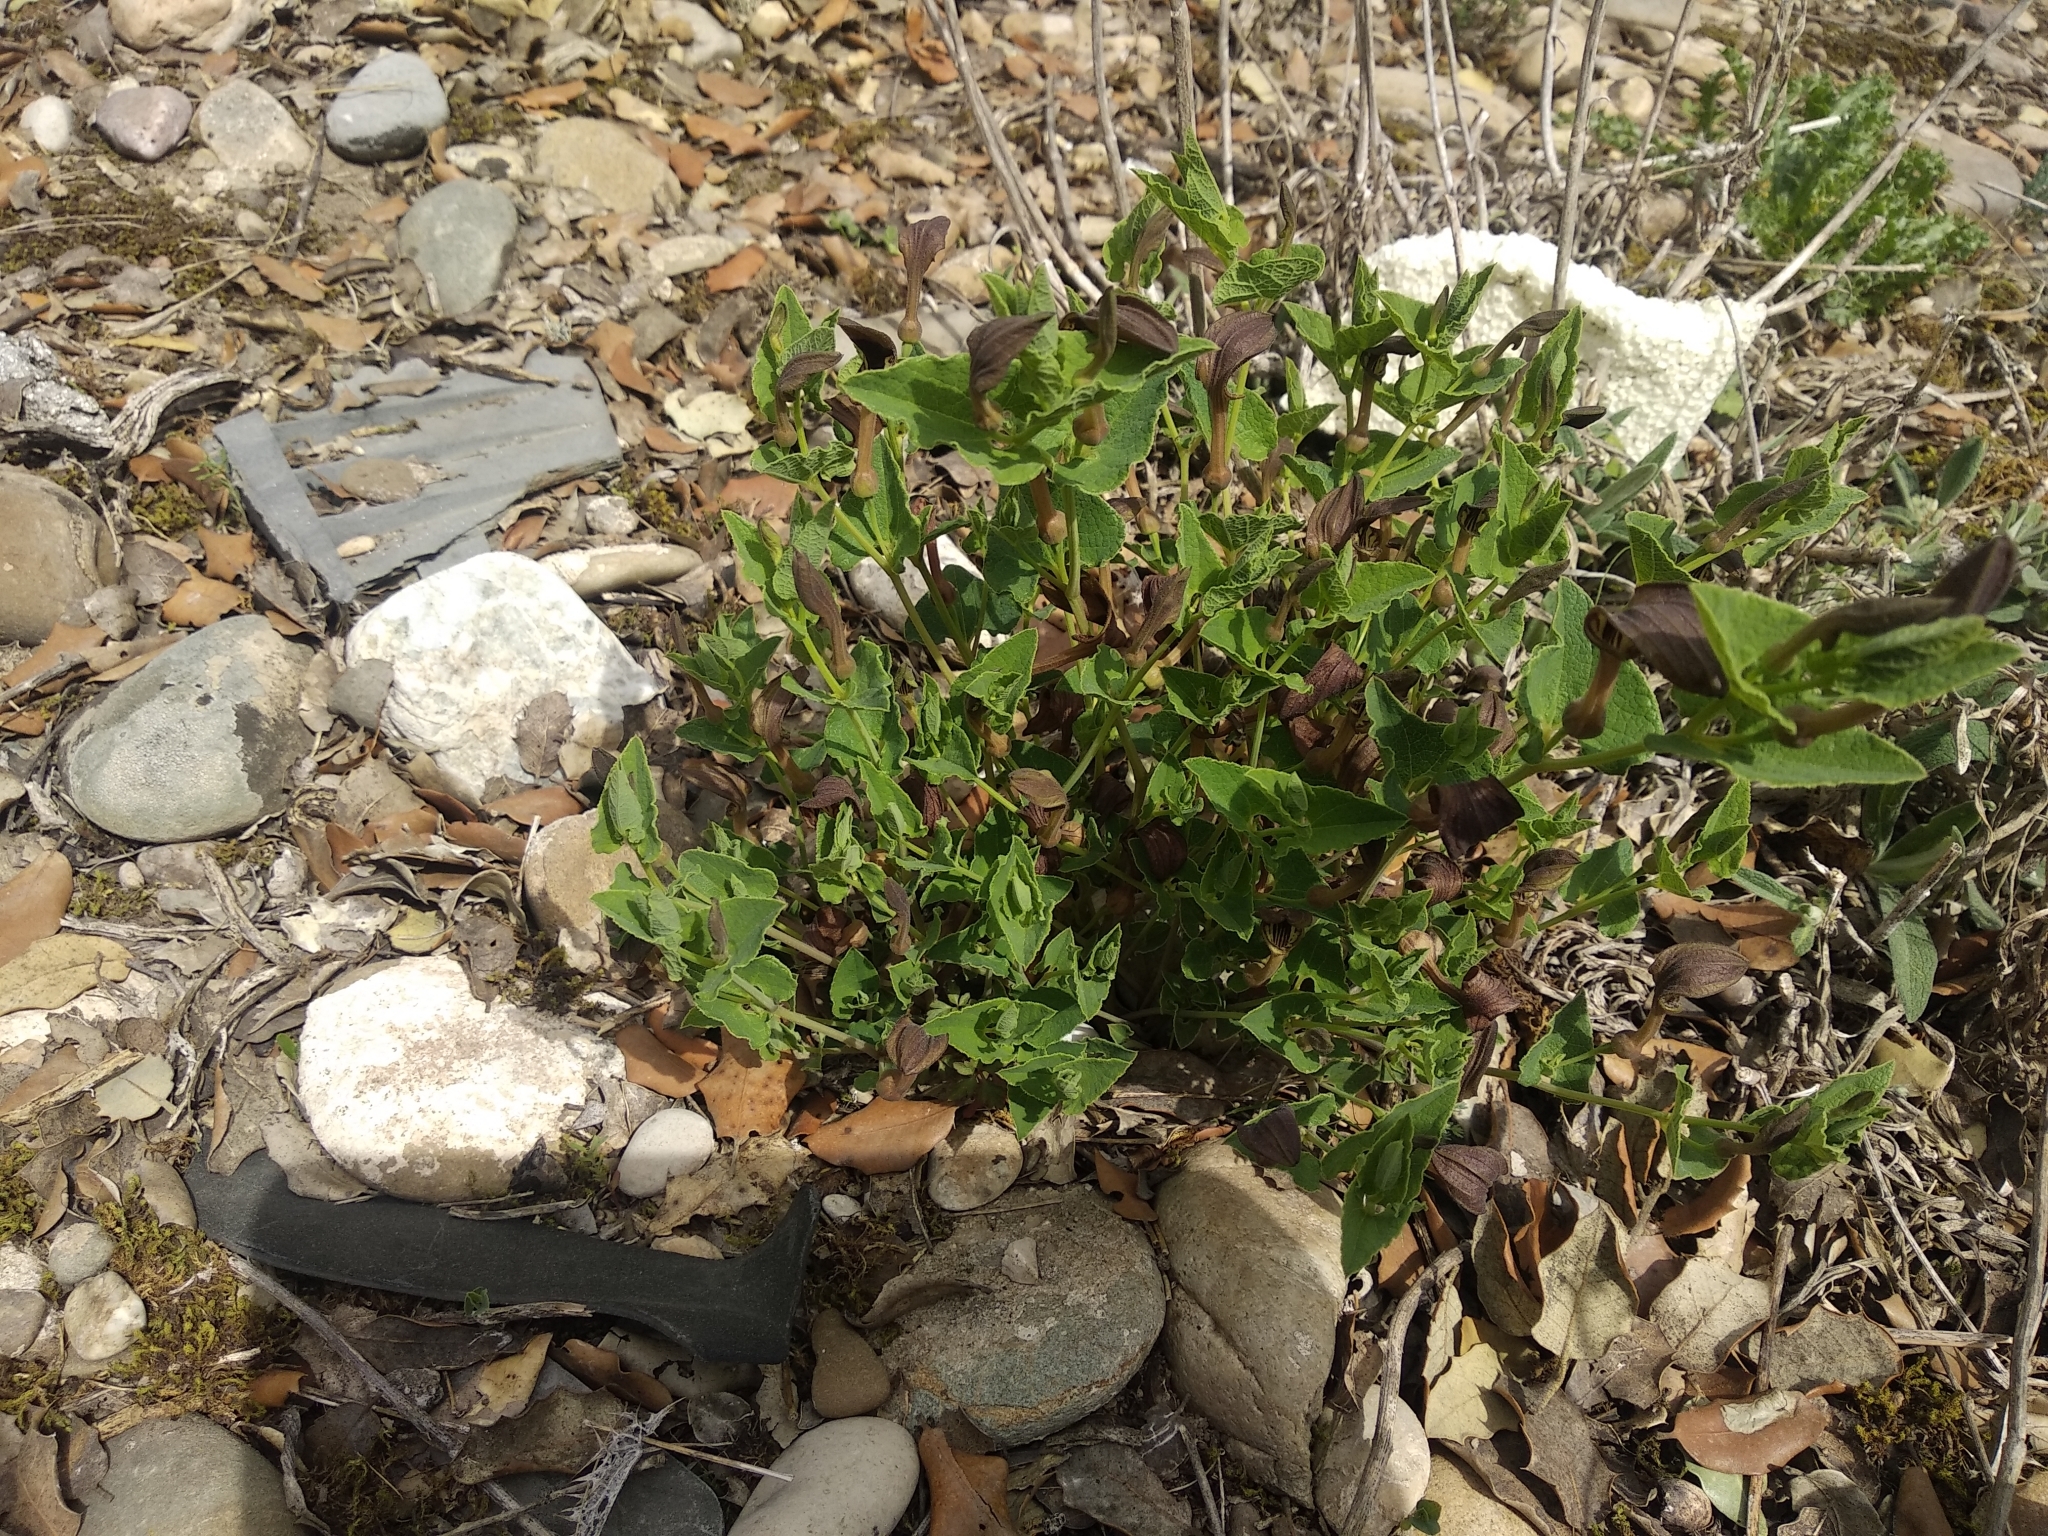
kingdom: Plantae
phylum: Tracheophyta
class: Magnoliopsida
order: Piperales
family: Aristolochiaceae
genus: Aristolochia
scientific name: Aristolochia pistolochia
